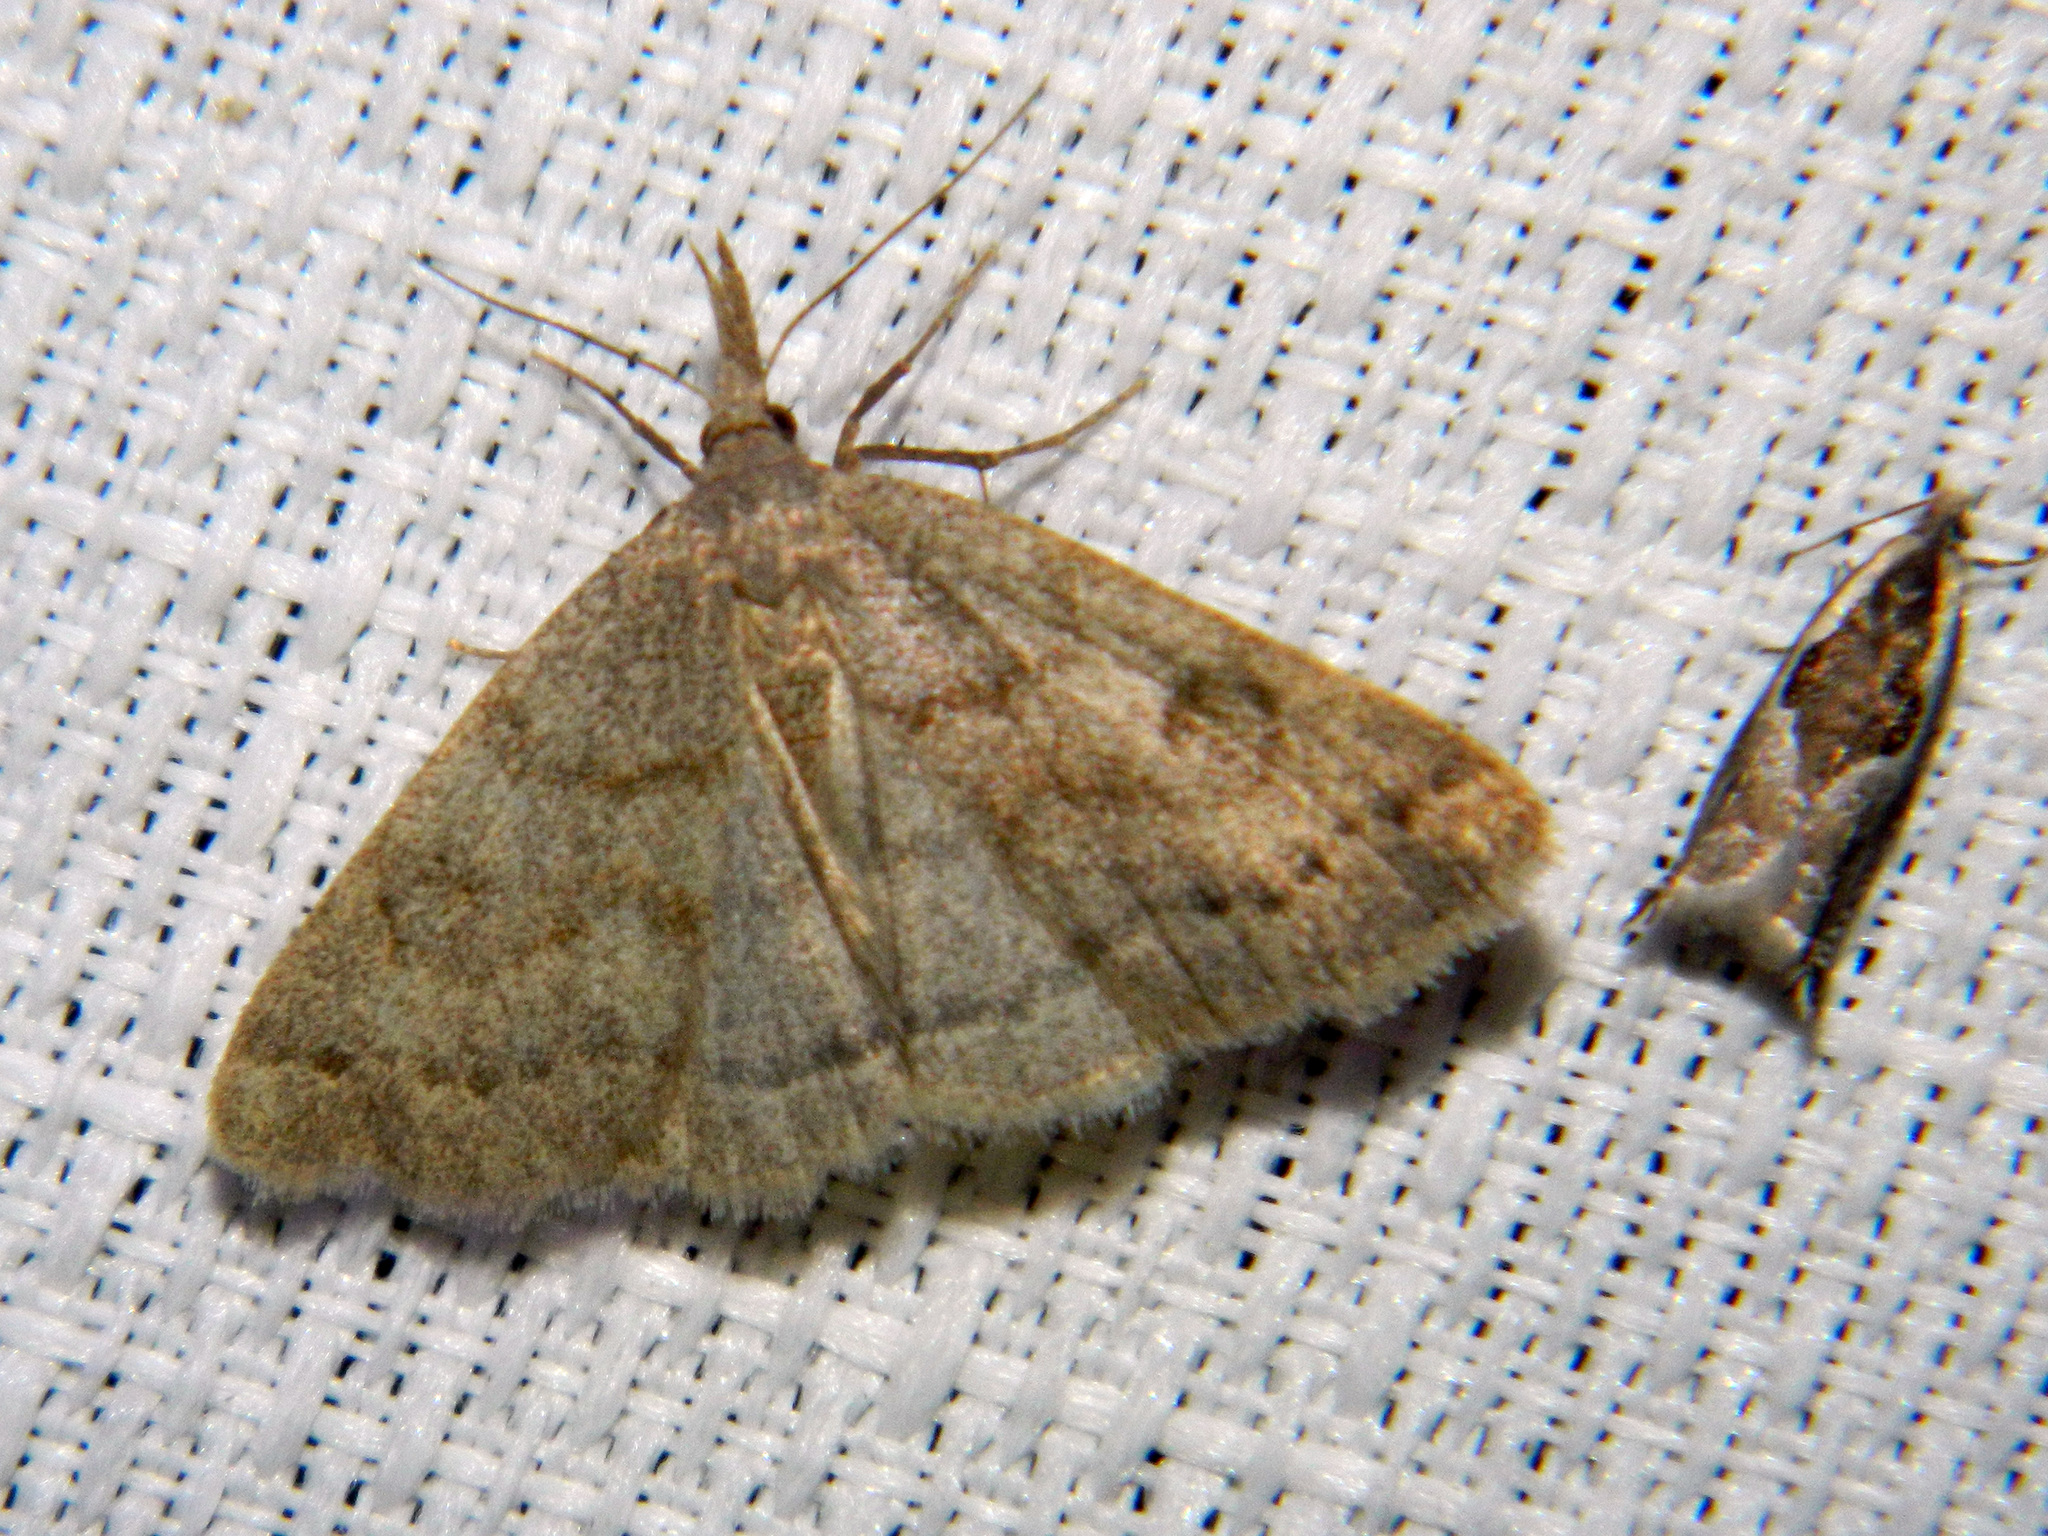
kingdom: Animalia
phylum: Arthropoda
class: Insecta
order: Lepidoptera
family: Erebidae
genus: Macrochilo
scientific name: Macrochilo morbidalis
